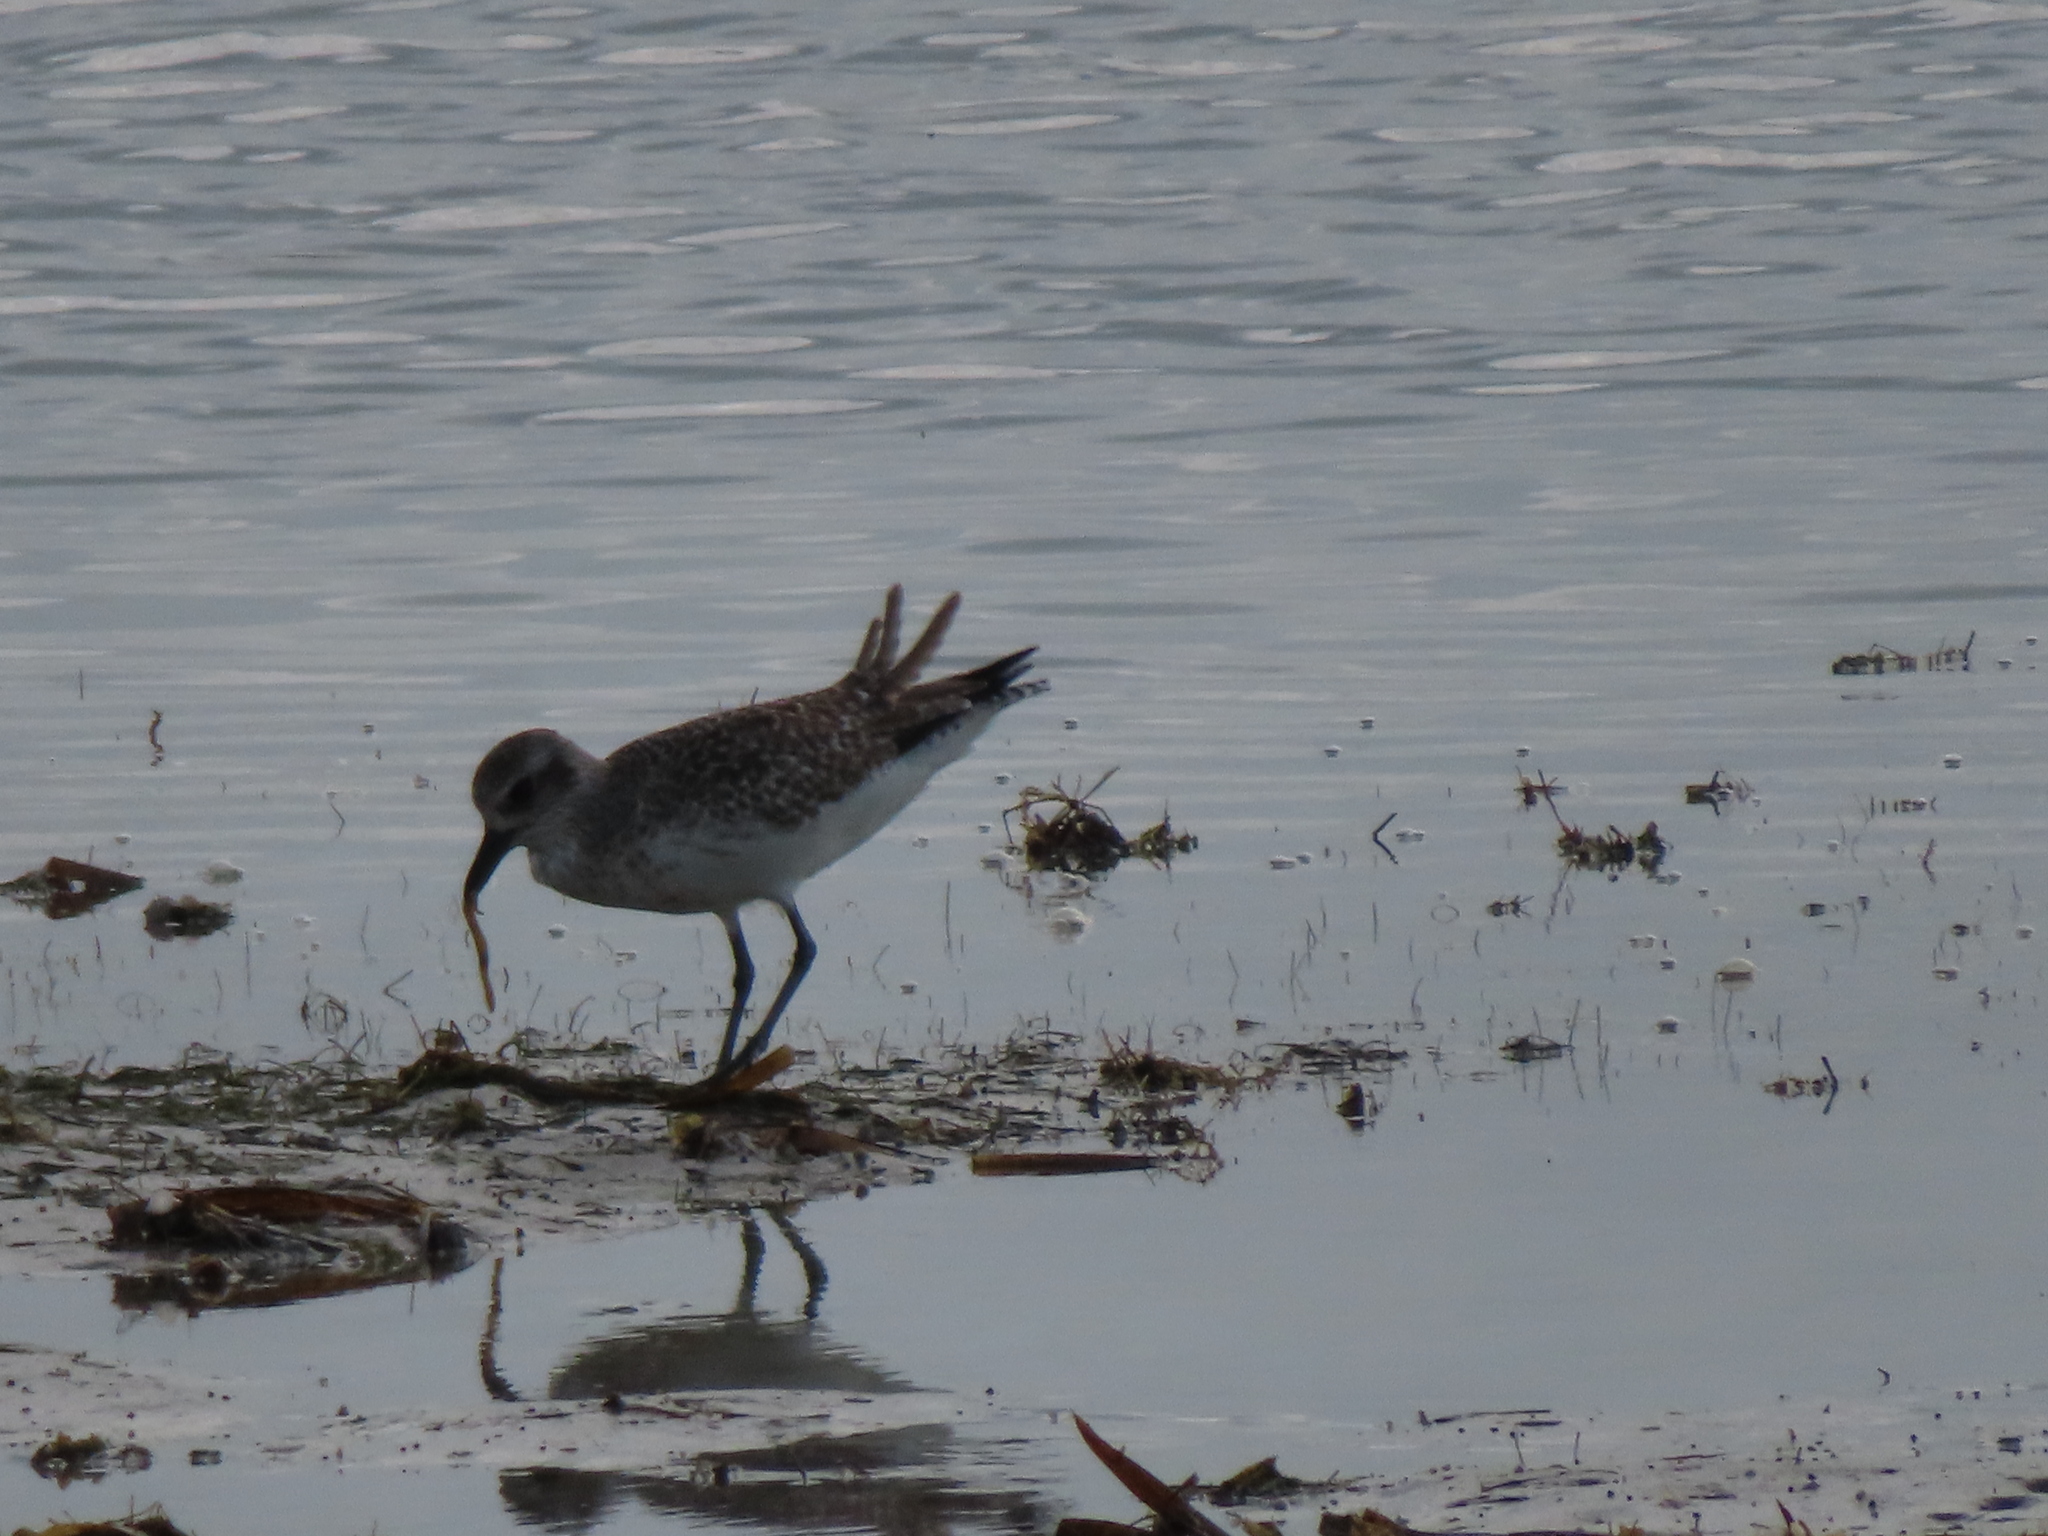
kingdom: Animalia
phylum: Chordata
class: Aves
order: Charadriiformes
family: Charadriidae
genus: Pluvialis
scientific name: Pluvialis squatarola
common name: Grey plover
